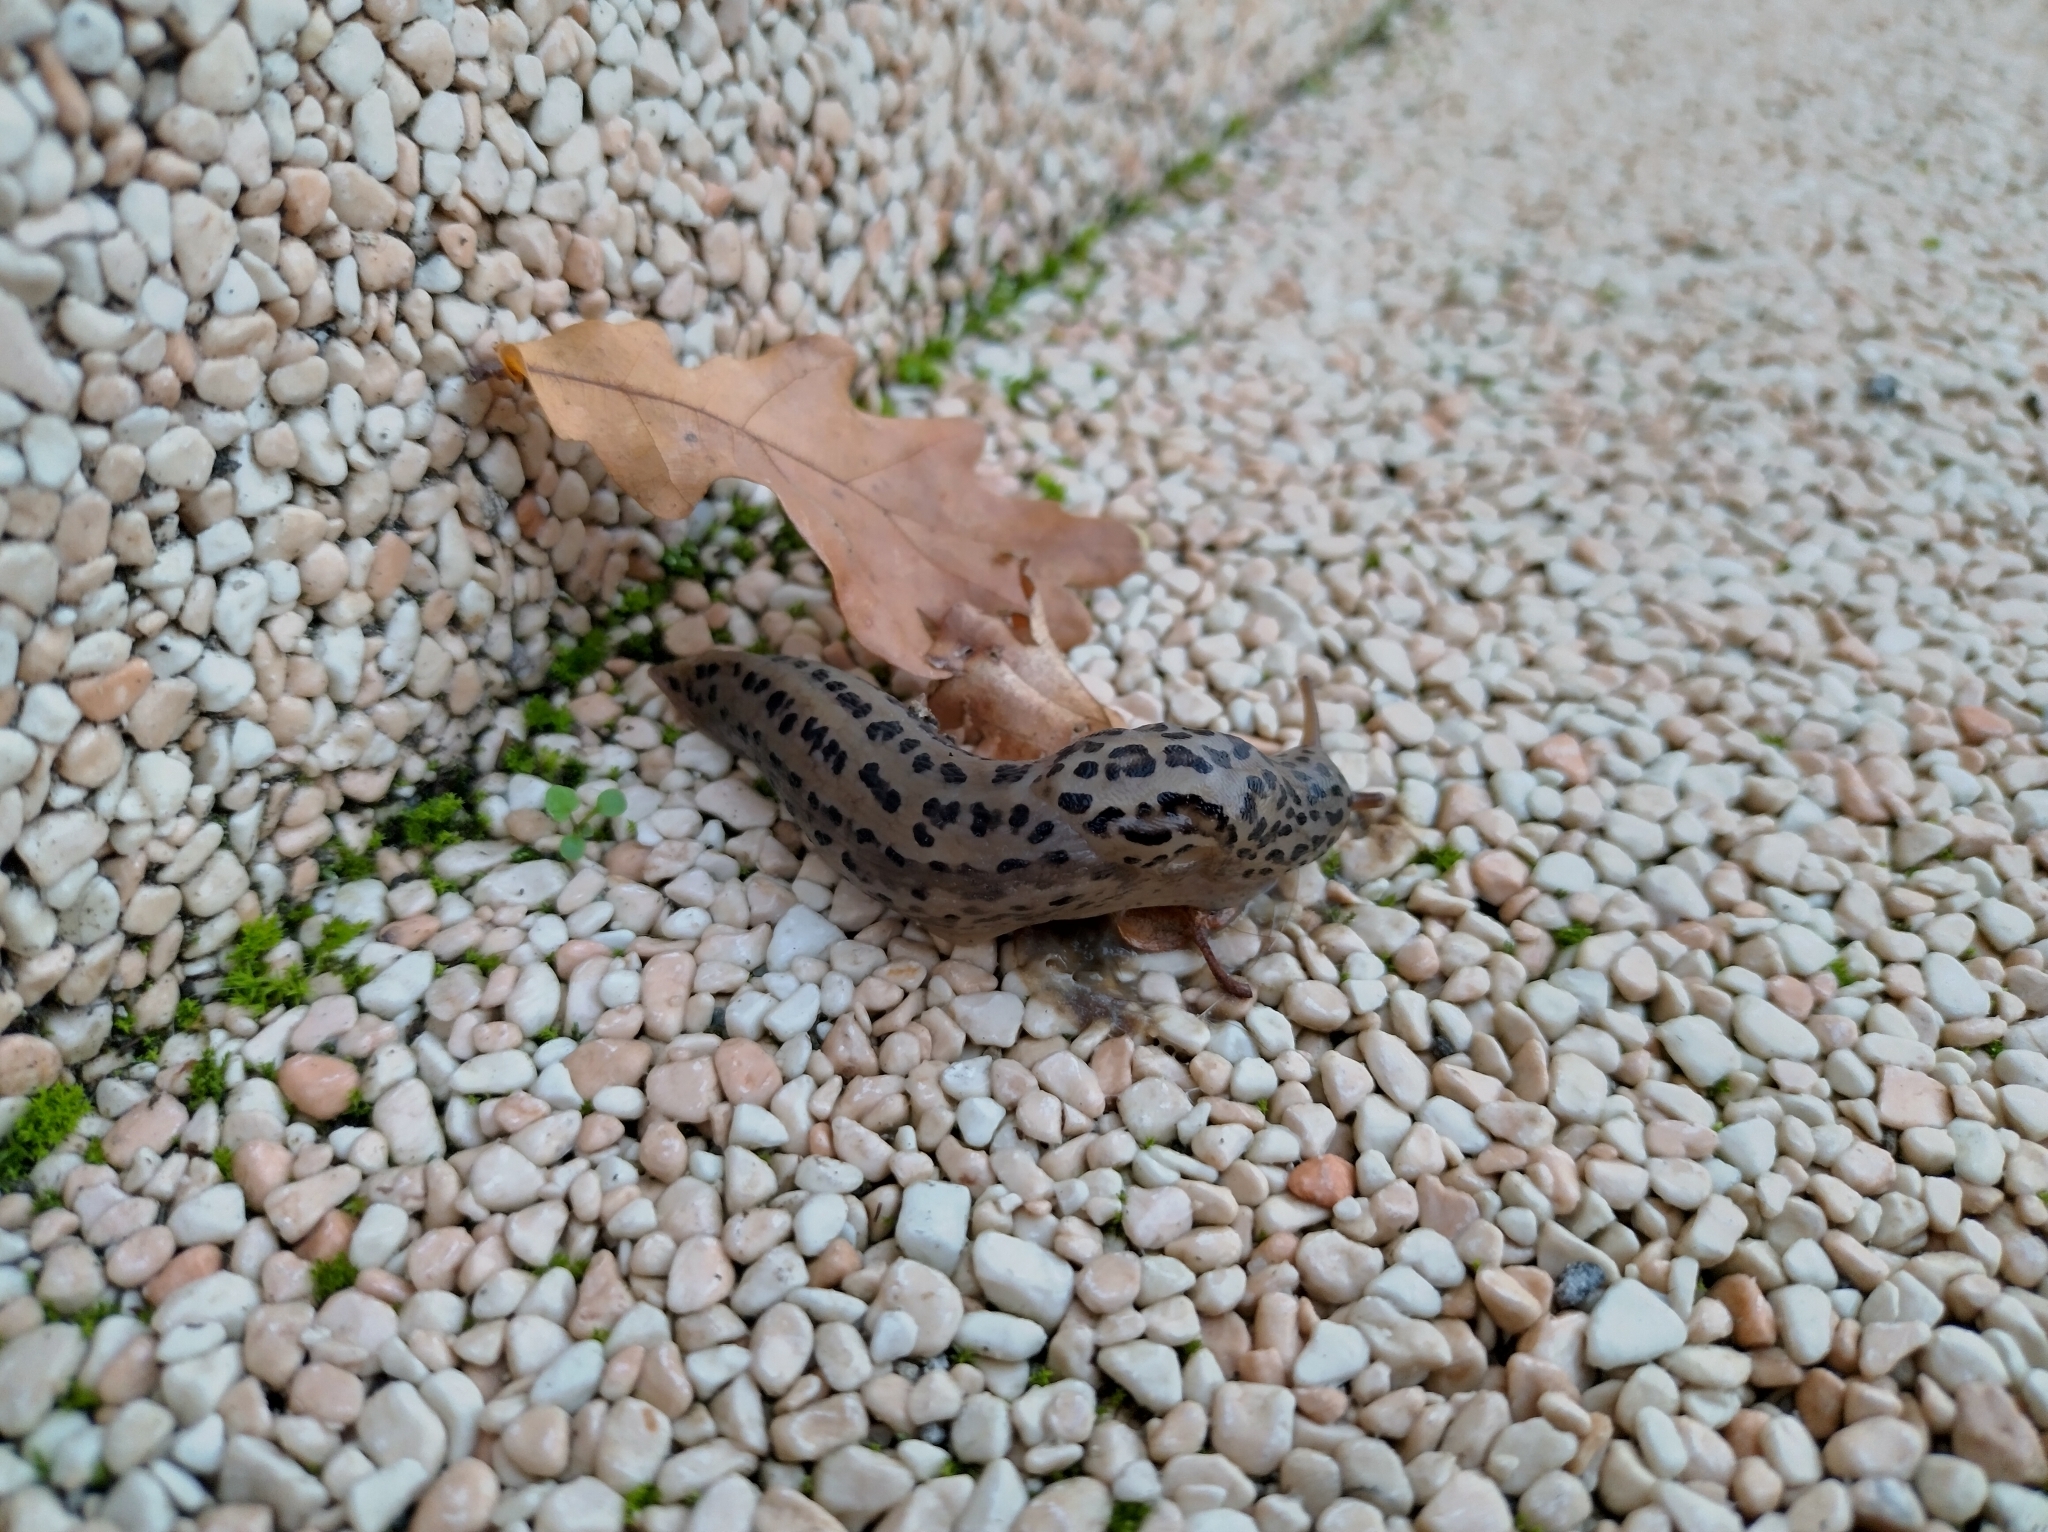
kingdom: Animalia
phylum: Mollusca
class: Gastropoda
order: Stylommatophora
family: Limacidae
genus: Limax
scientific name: Limax maximus
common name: Great grey slug
